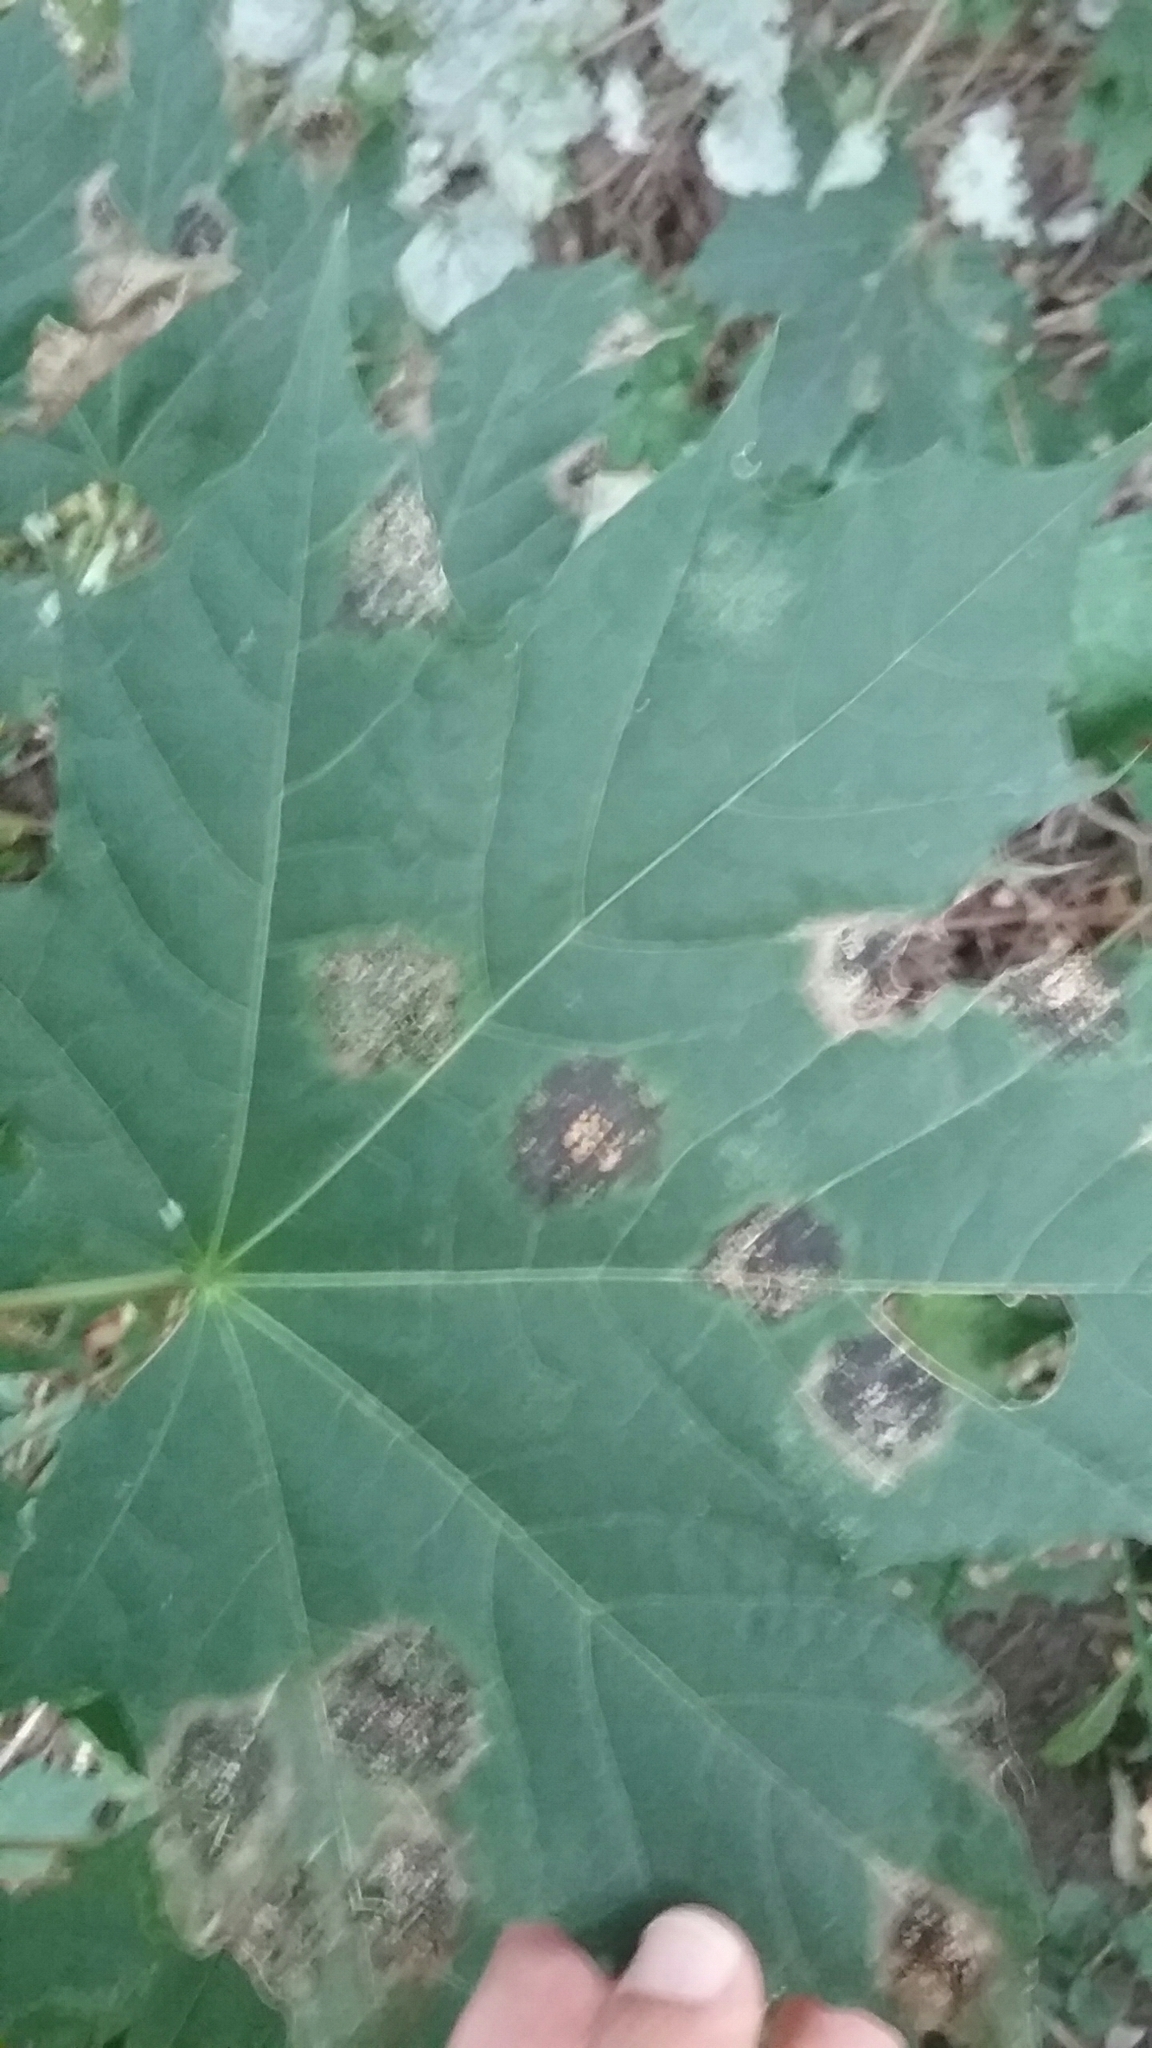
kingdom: Fungi
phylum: Ascomycota
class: Leotiomycetes
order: Rhytismatales
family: Rhytismataceae
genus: Rhytisma
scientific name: Rhytisma acerinum
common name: European tar spot
